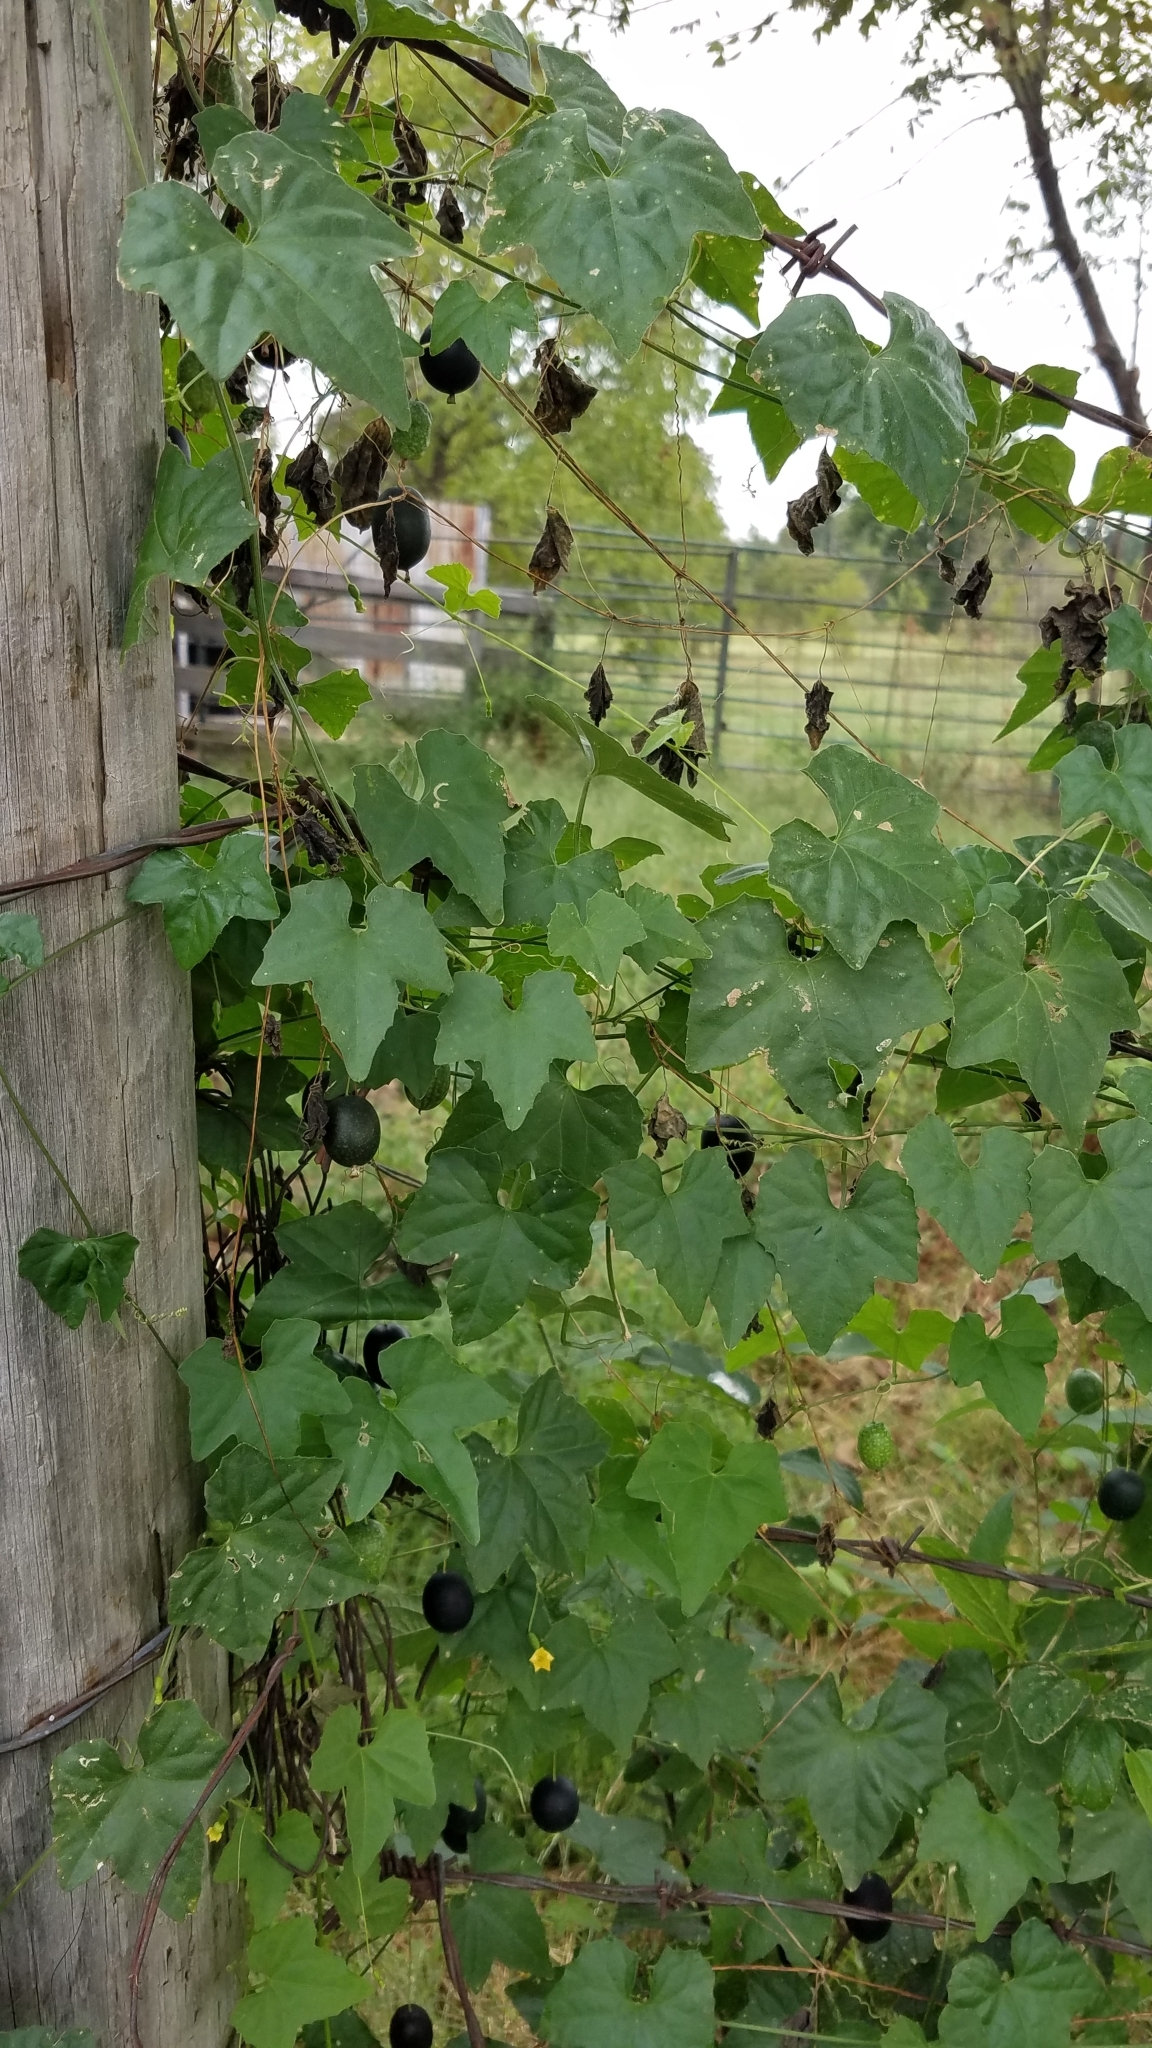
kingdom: Plantae
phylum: Tracheophyta
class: Magnoliopsida
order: Cucurbitales
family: Cucurbitaceae
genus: Melothria
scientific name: Melothria pendula
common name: Creeping-cucumber
